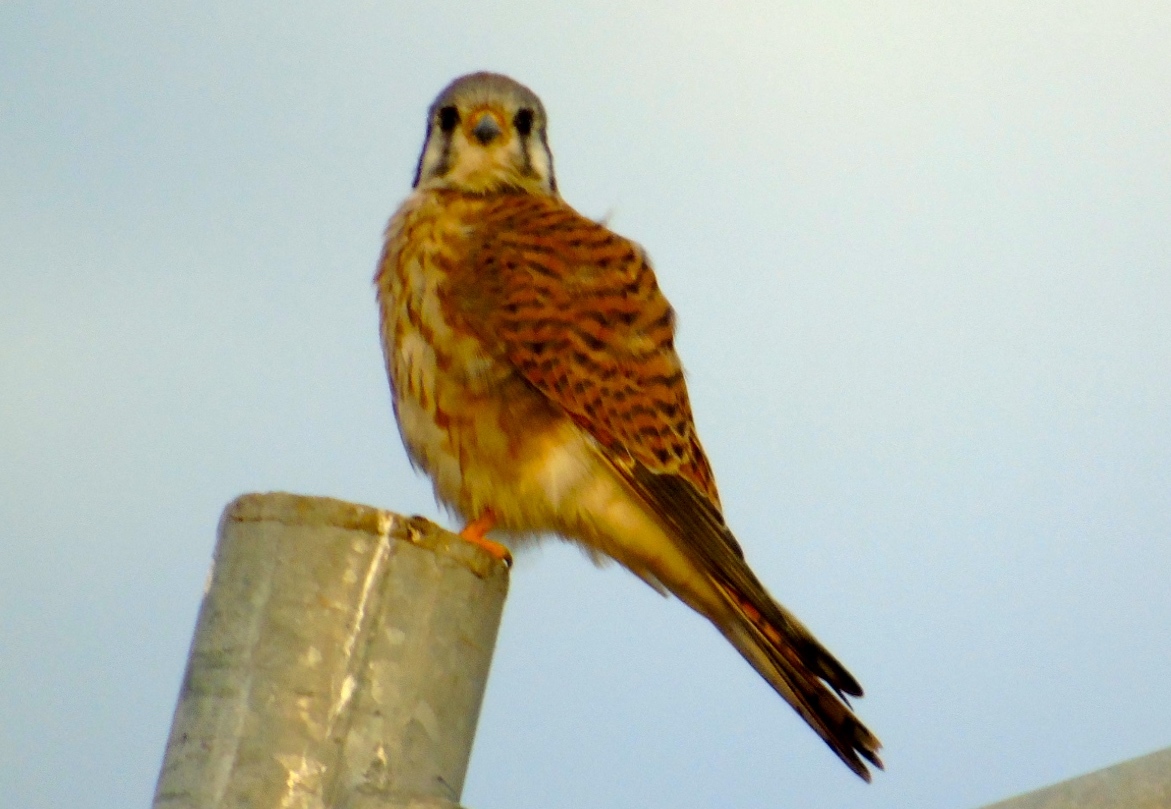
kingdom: Animalia
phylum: Chordata
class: Aves
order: Falconiformes
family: Falconidae
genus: Falco
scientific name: Falco sparverius
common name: American kestrel
